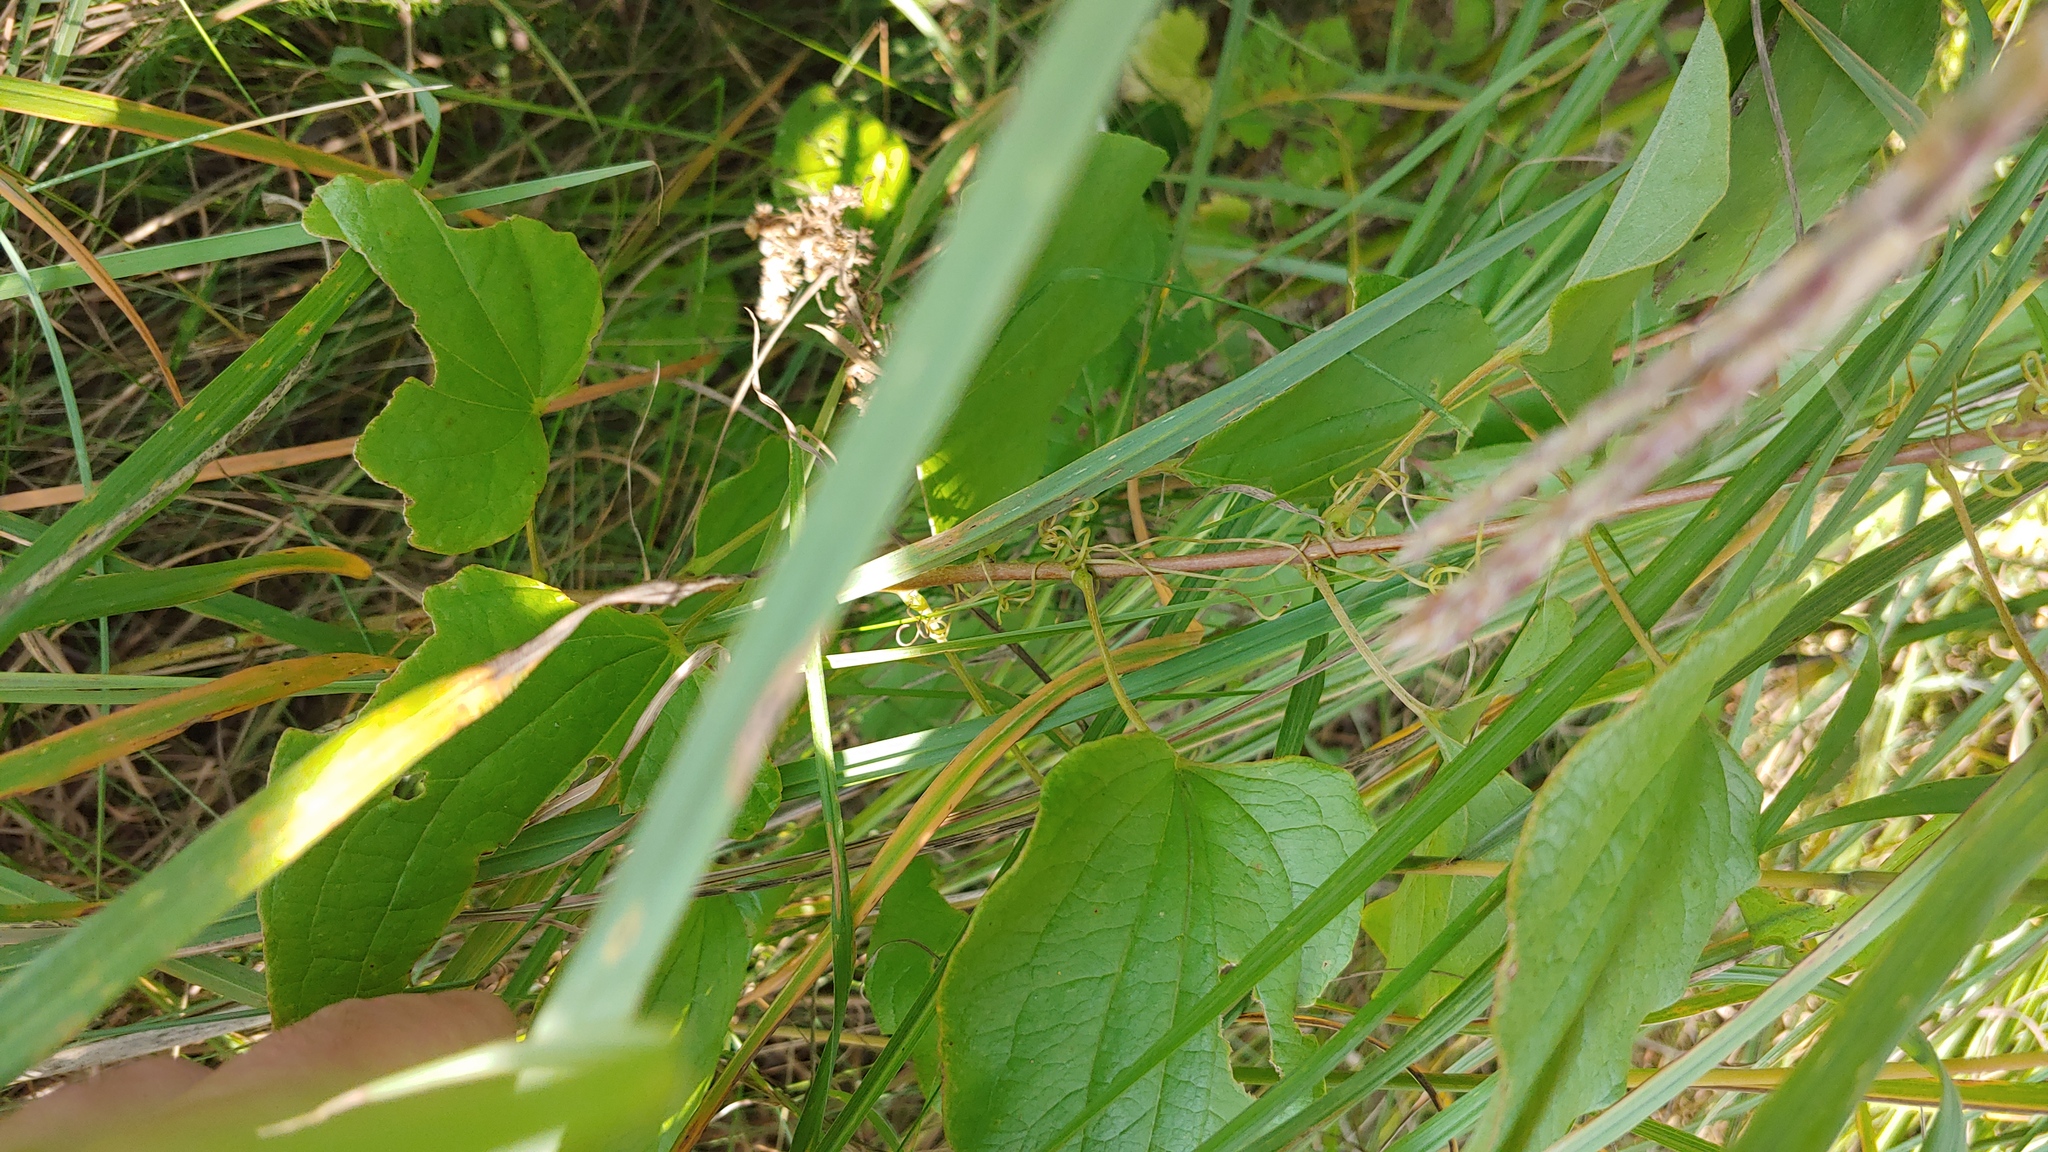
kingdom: Plantae
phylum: Tracheophyta
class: Liliopsida
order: Liliales
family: Smilacaceae
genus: Smilax
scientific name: Smilax lasioneura
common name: Blue ridge carrionflower
